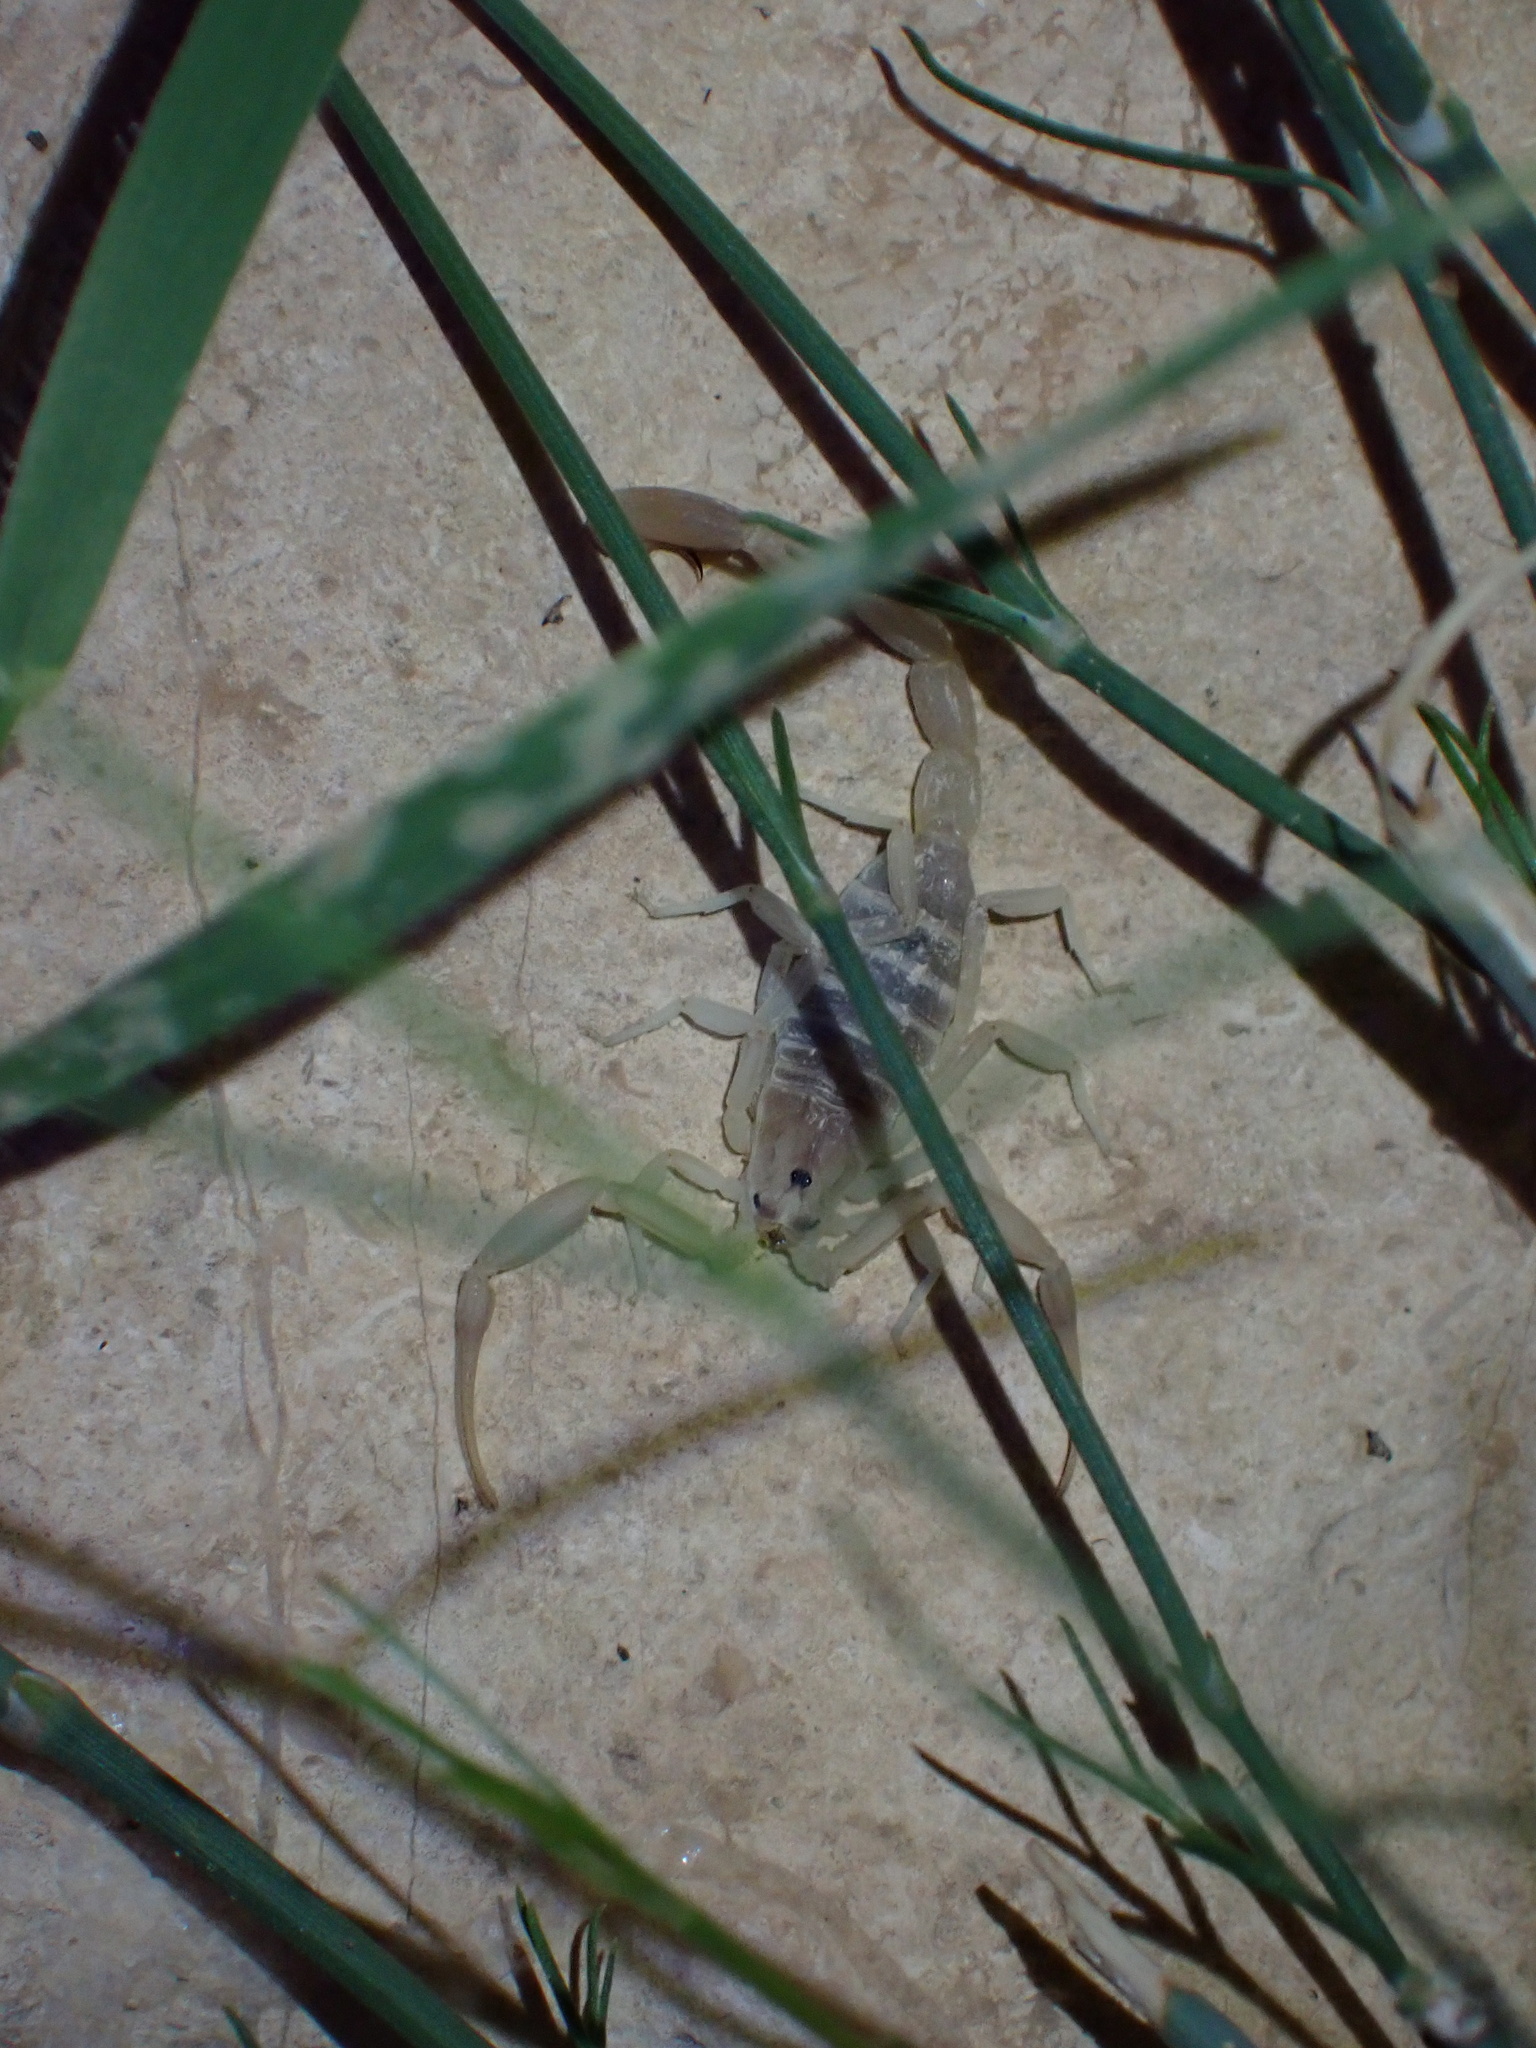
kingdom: Animalia
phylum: Arthropoda
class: Arachnida
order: Scorpiones
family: Buthidae
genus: Compsobuthus
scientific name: Compsobuthus petriolii
